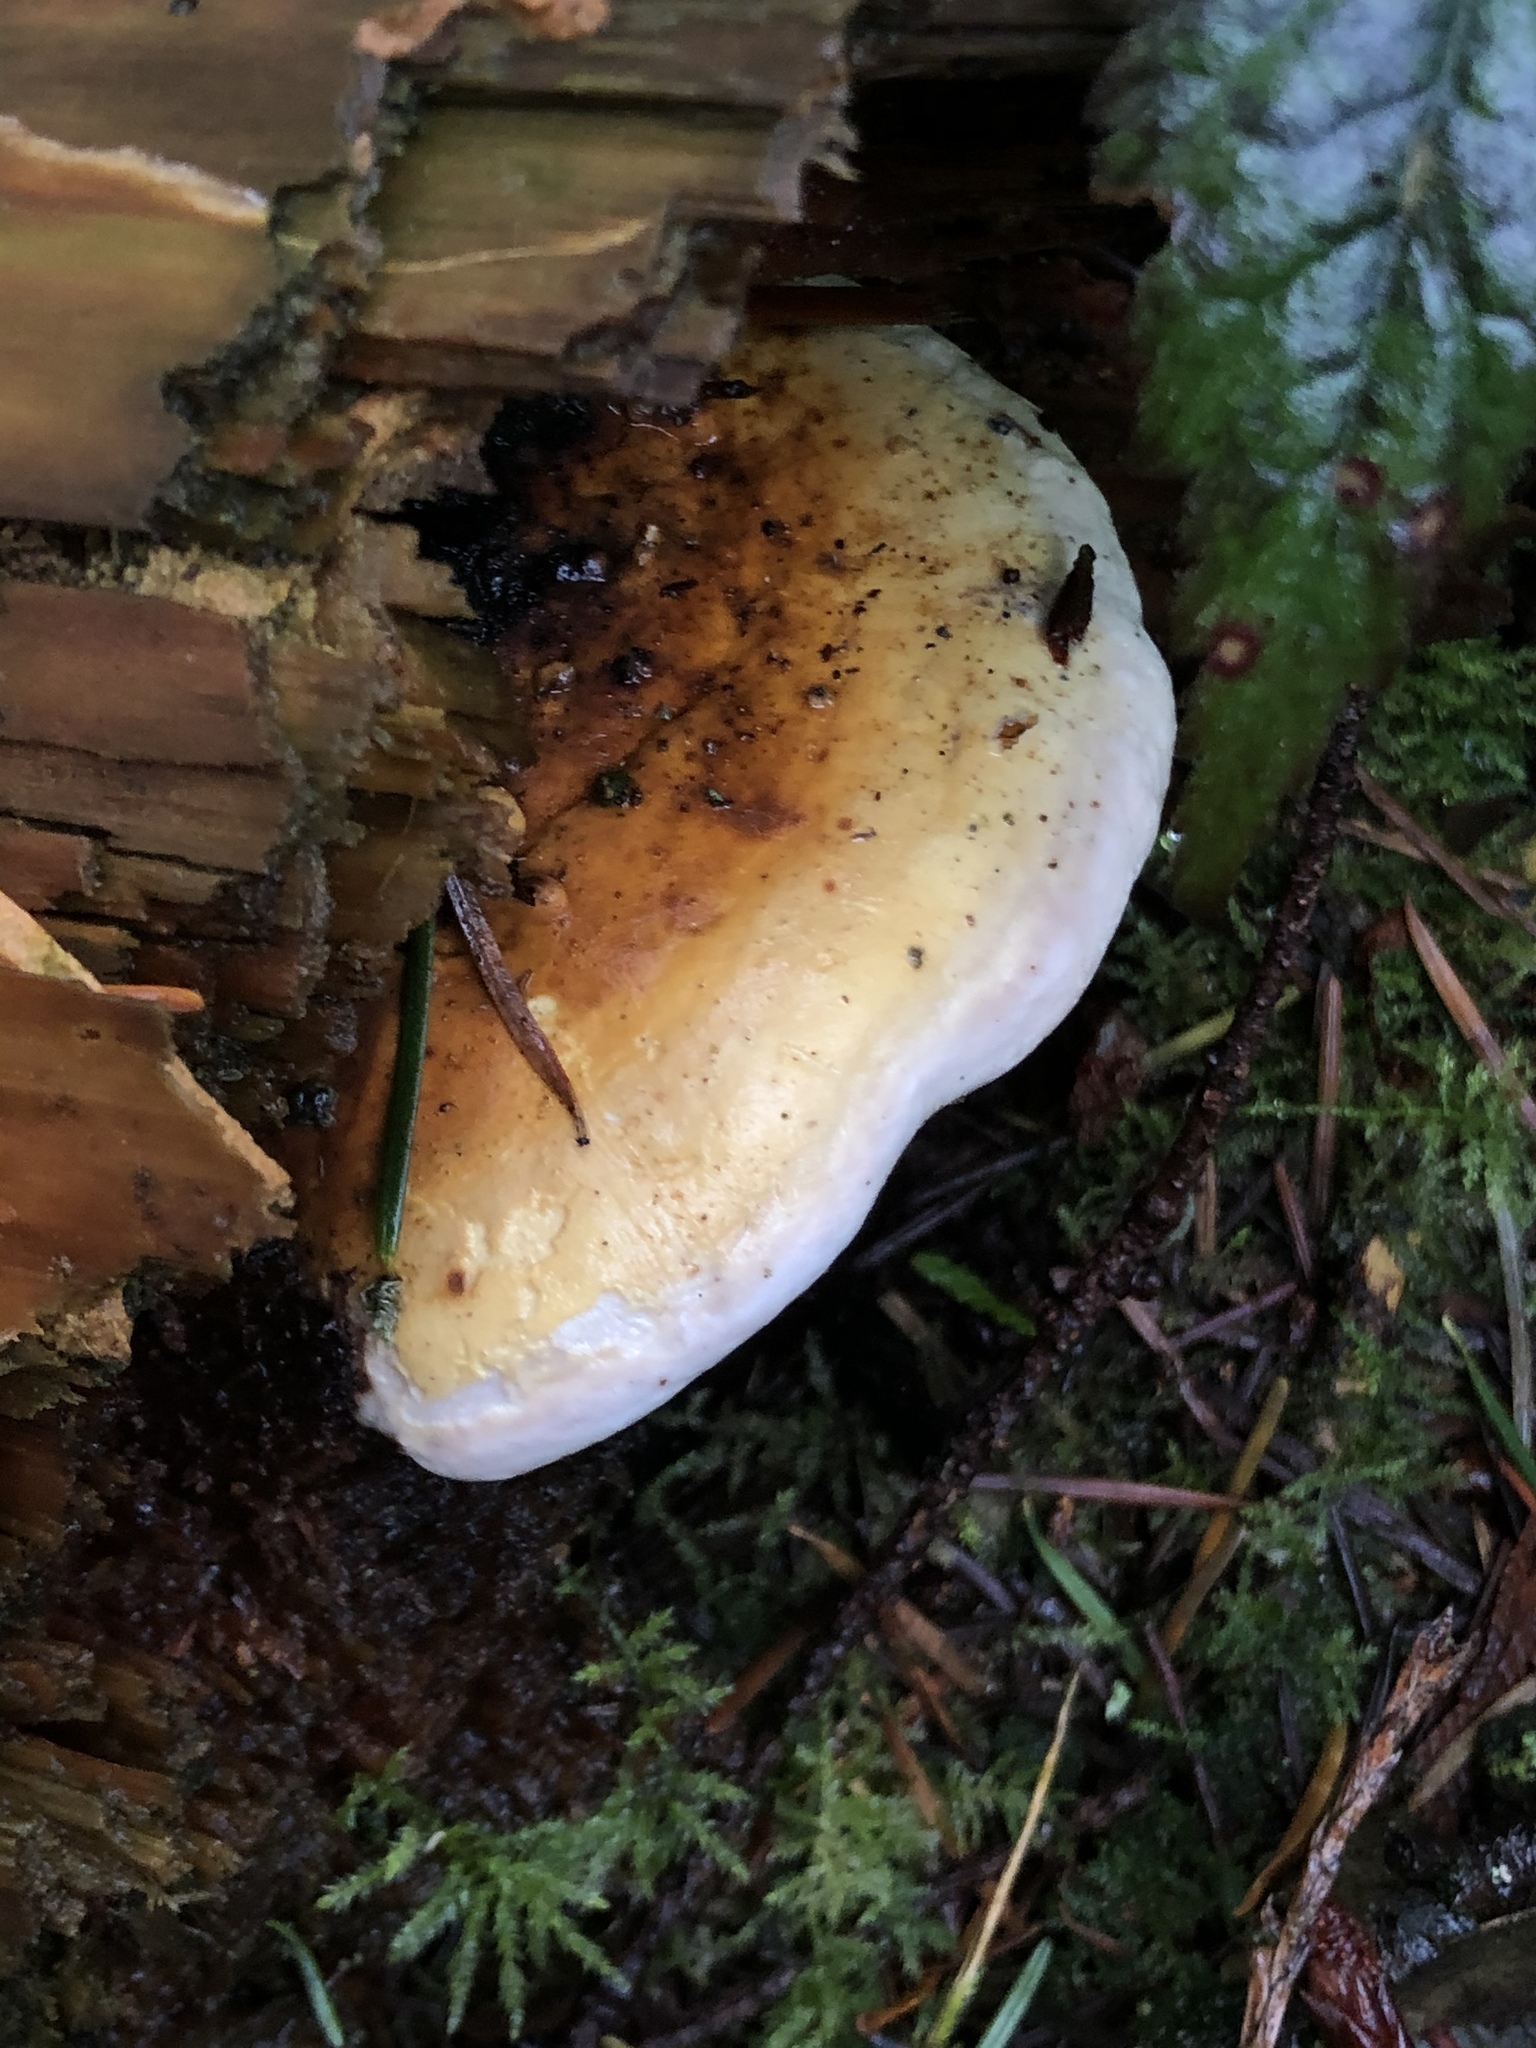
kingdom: Fungi
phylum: Basidiomycota
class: Agaricomycetes
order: Polyporales
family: Fomitopsidaceae
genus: Fomitopsis
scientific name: Fomitopsis mounceae
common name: Northern red belt
